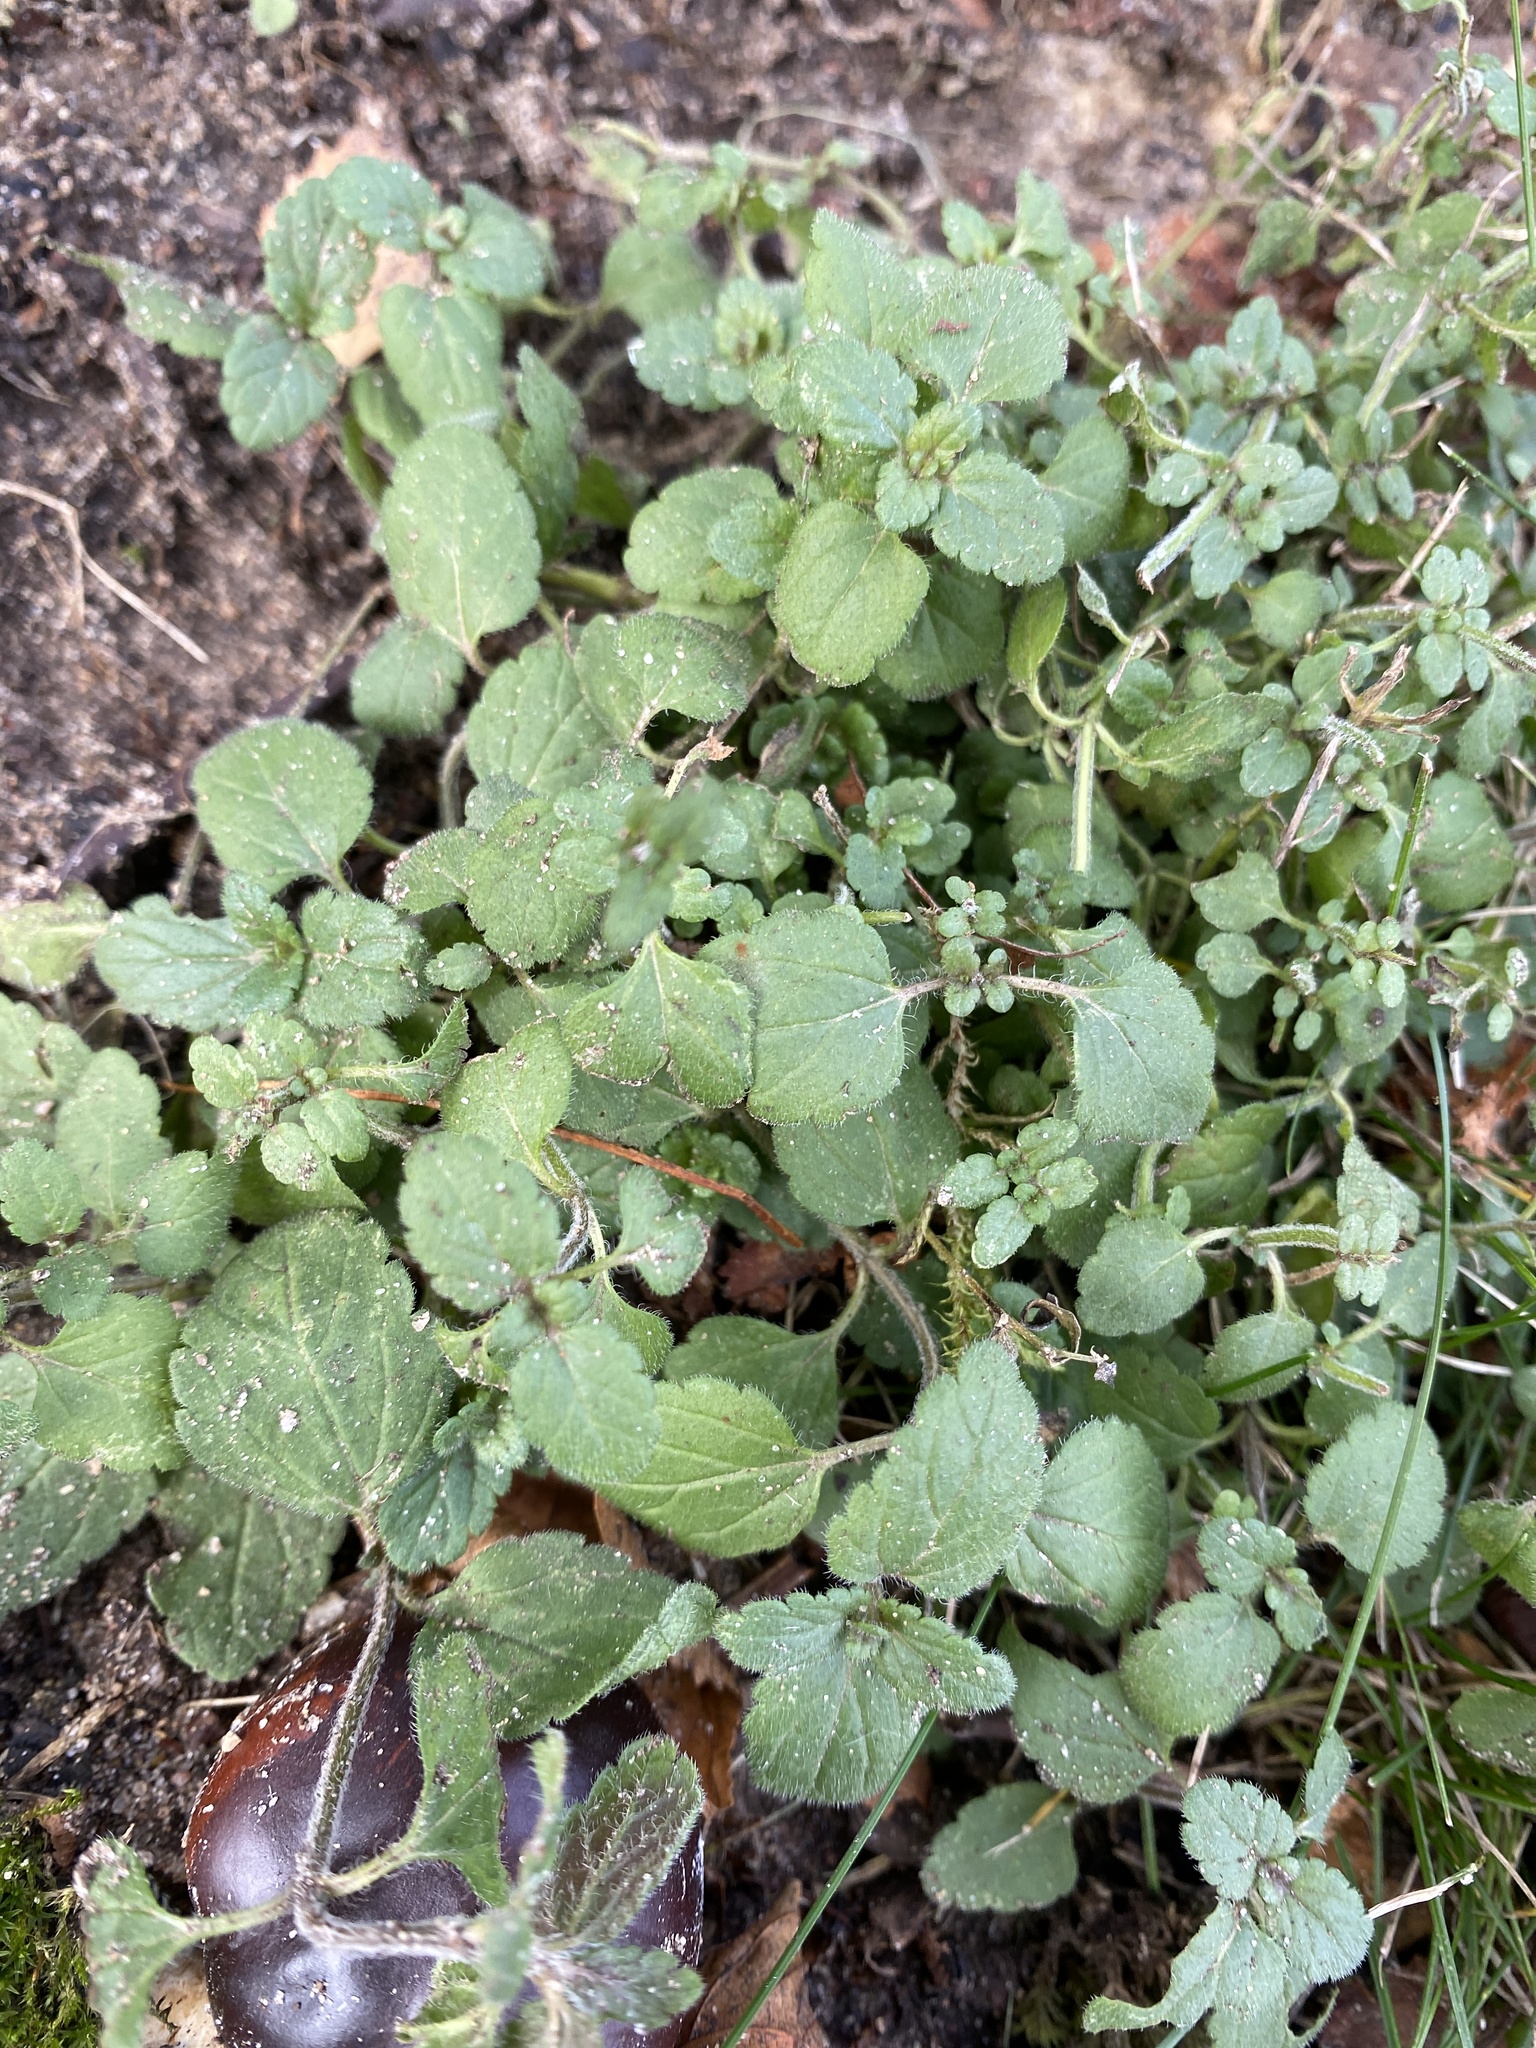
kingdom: Plantae
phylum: Tracheophyta
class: Magnoliopsida
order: Lamiales
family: Plantaginaceae
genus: Veronica
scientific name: Veronica chamaedrys
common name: Germander speedwell
